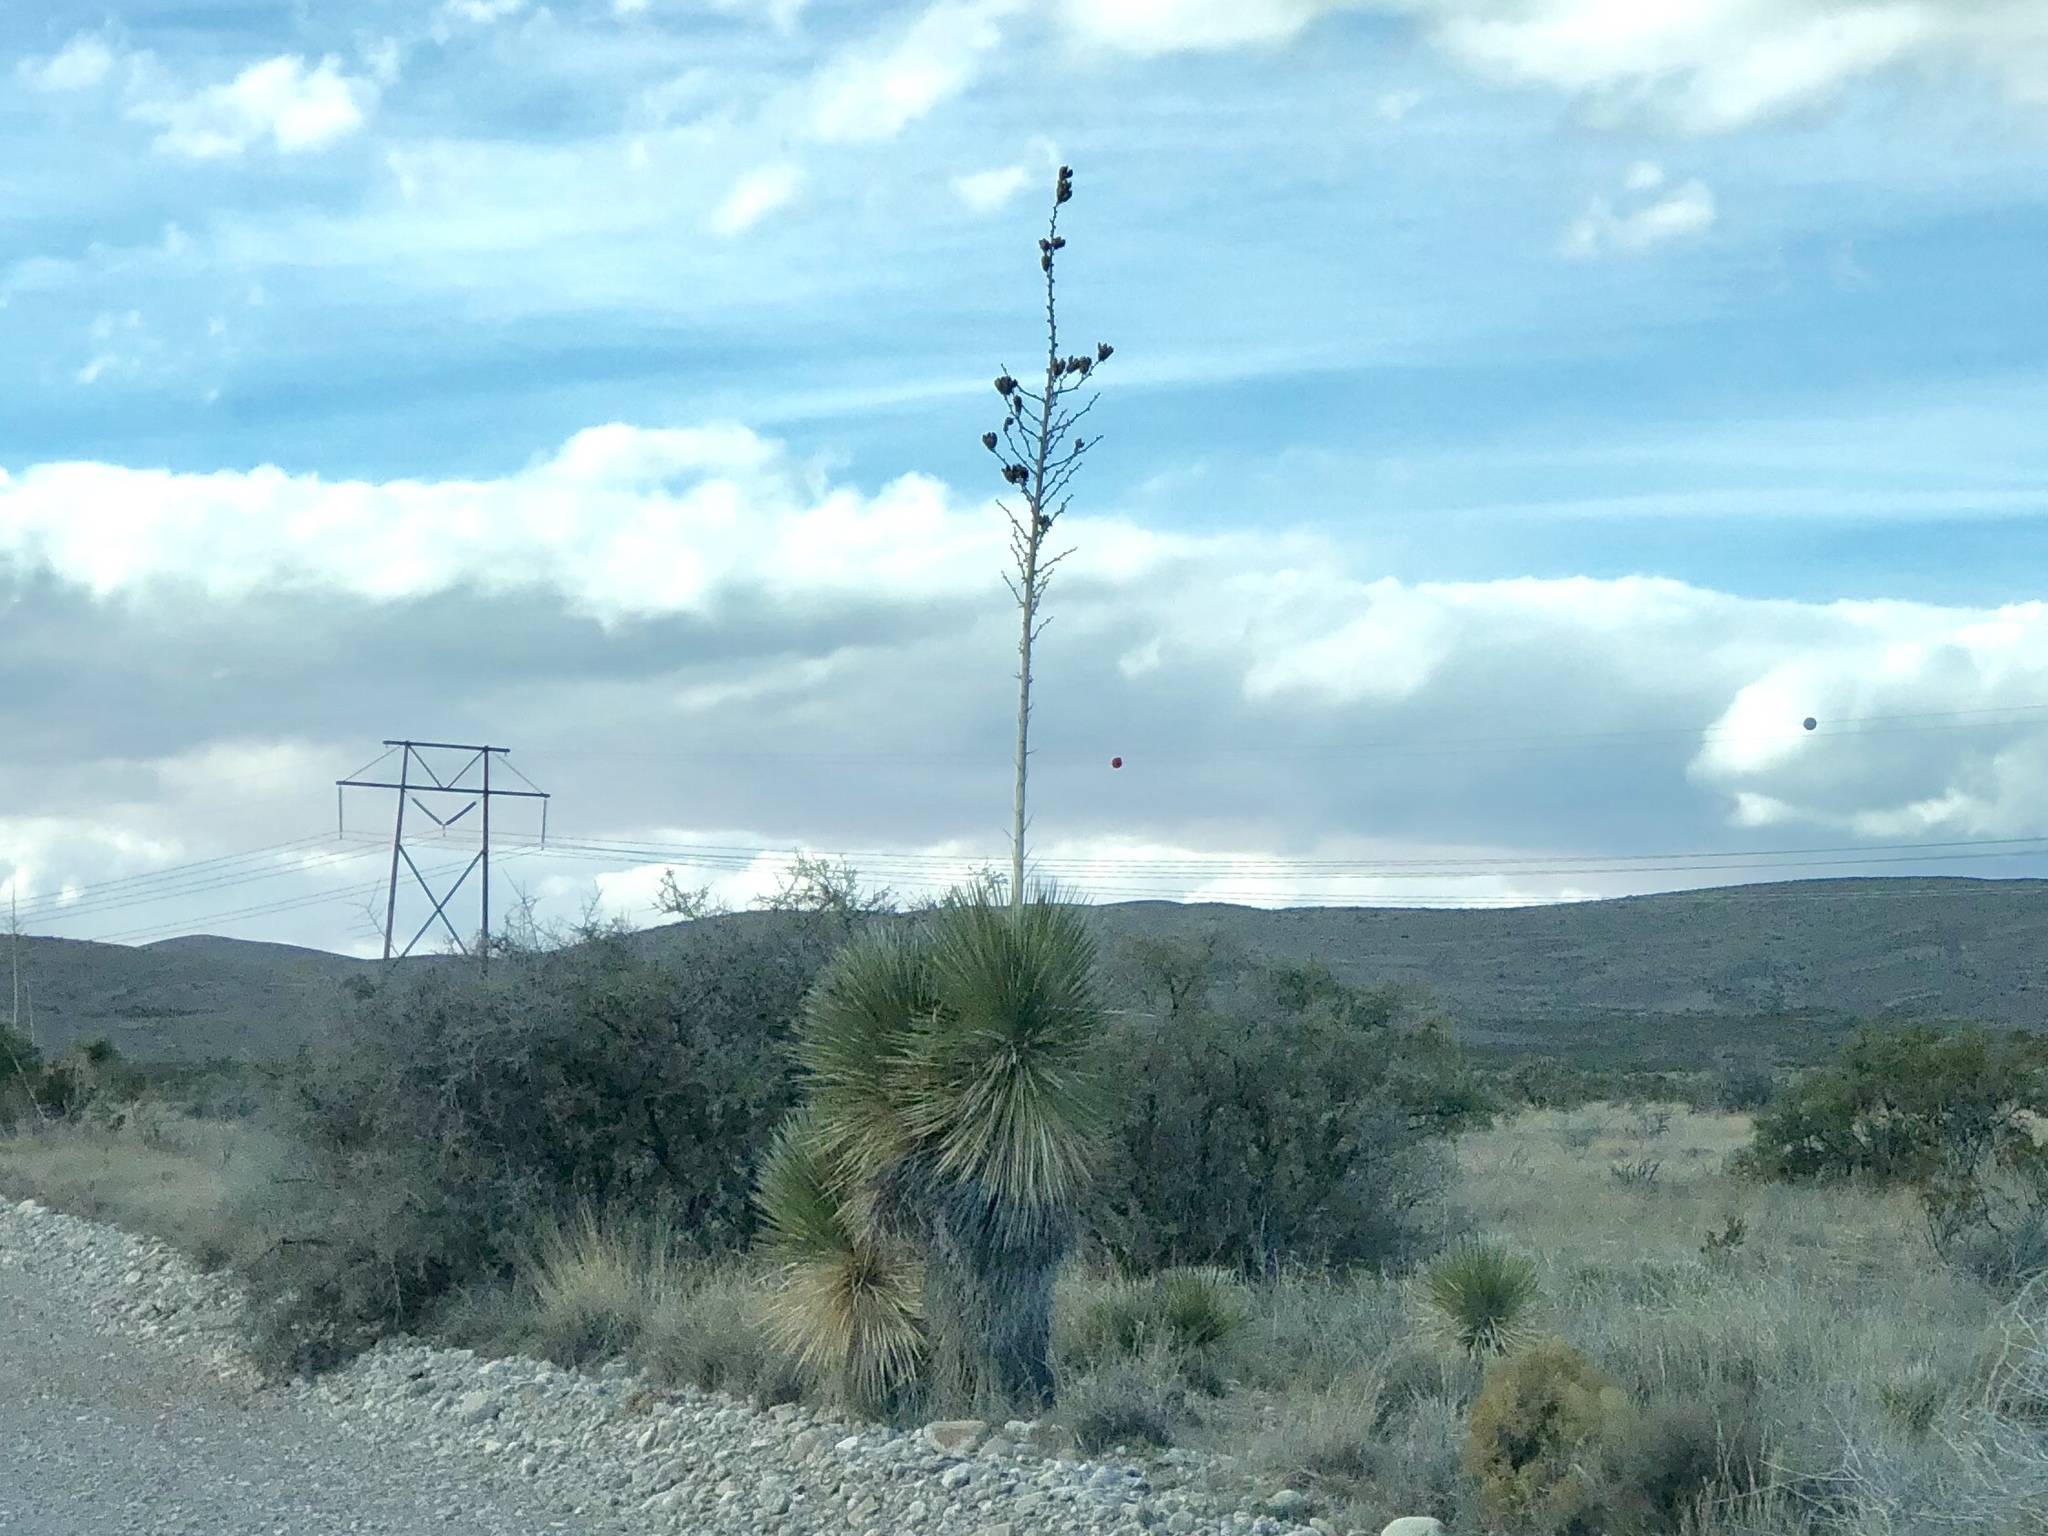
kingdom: Plantae
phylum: Tracheophyta
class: Liliopsida
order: Asparagales
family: Asparagaceae
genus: Yucca
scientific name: Yucca elata
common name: Palmella
